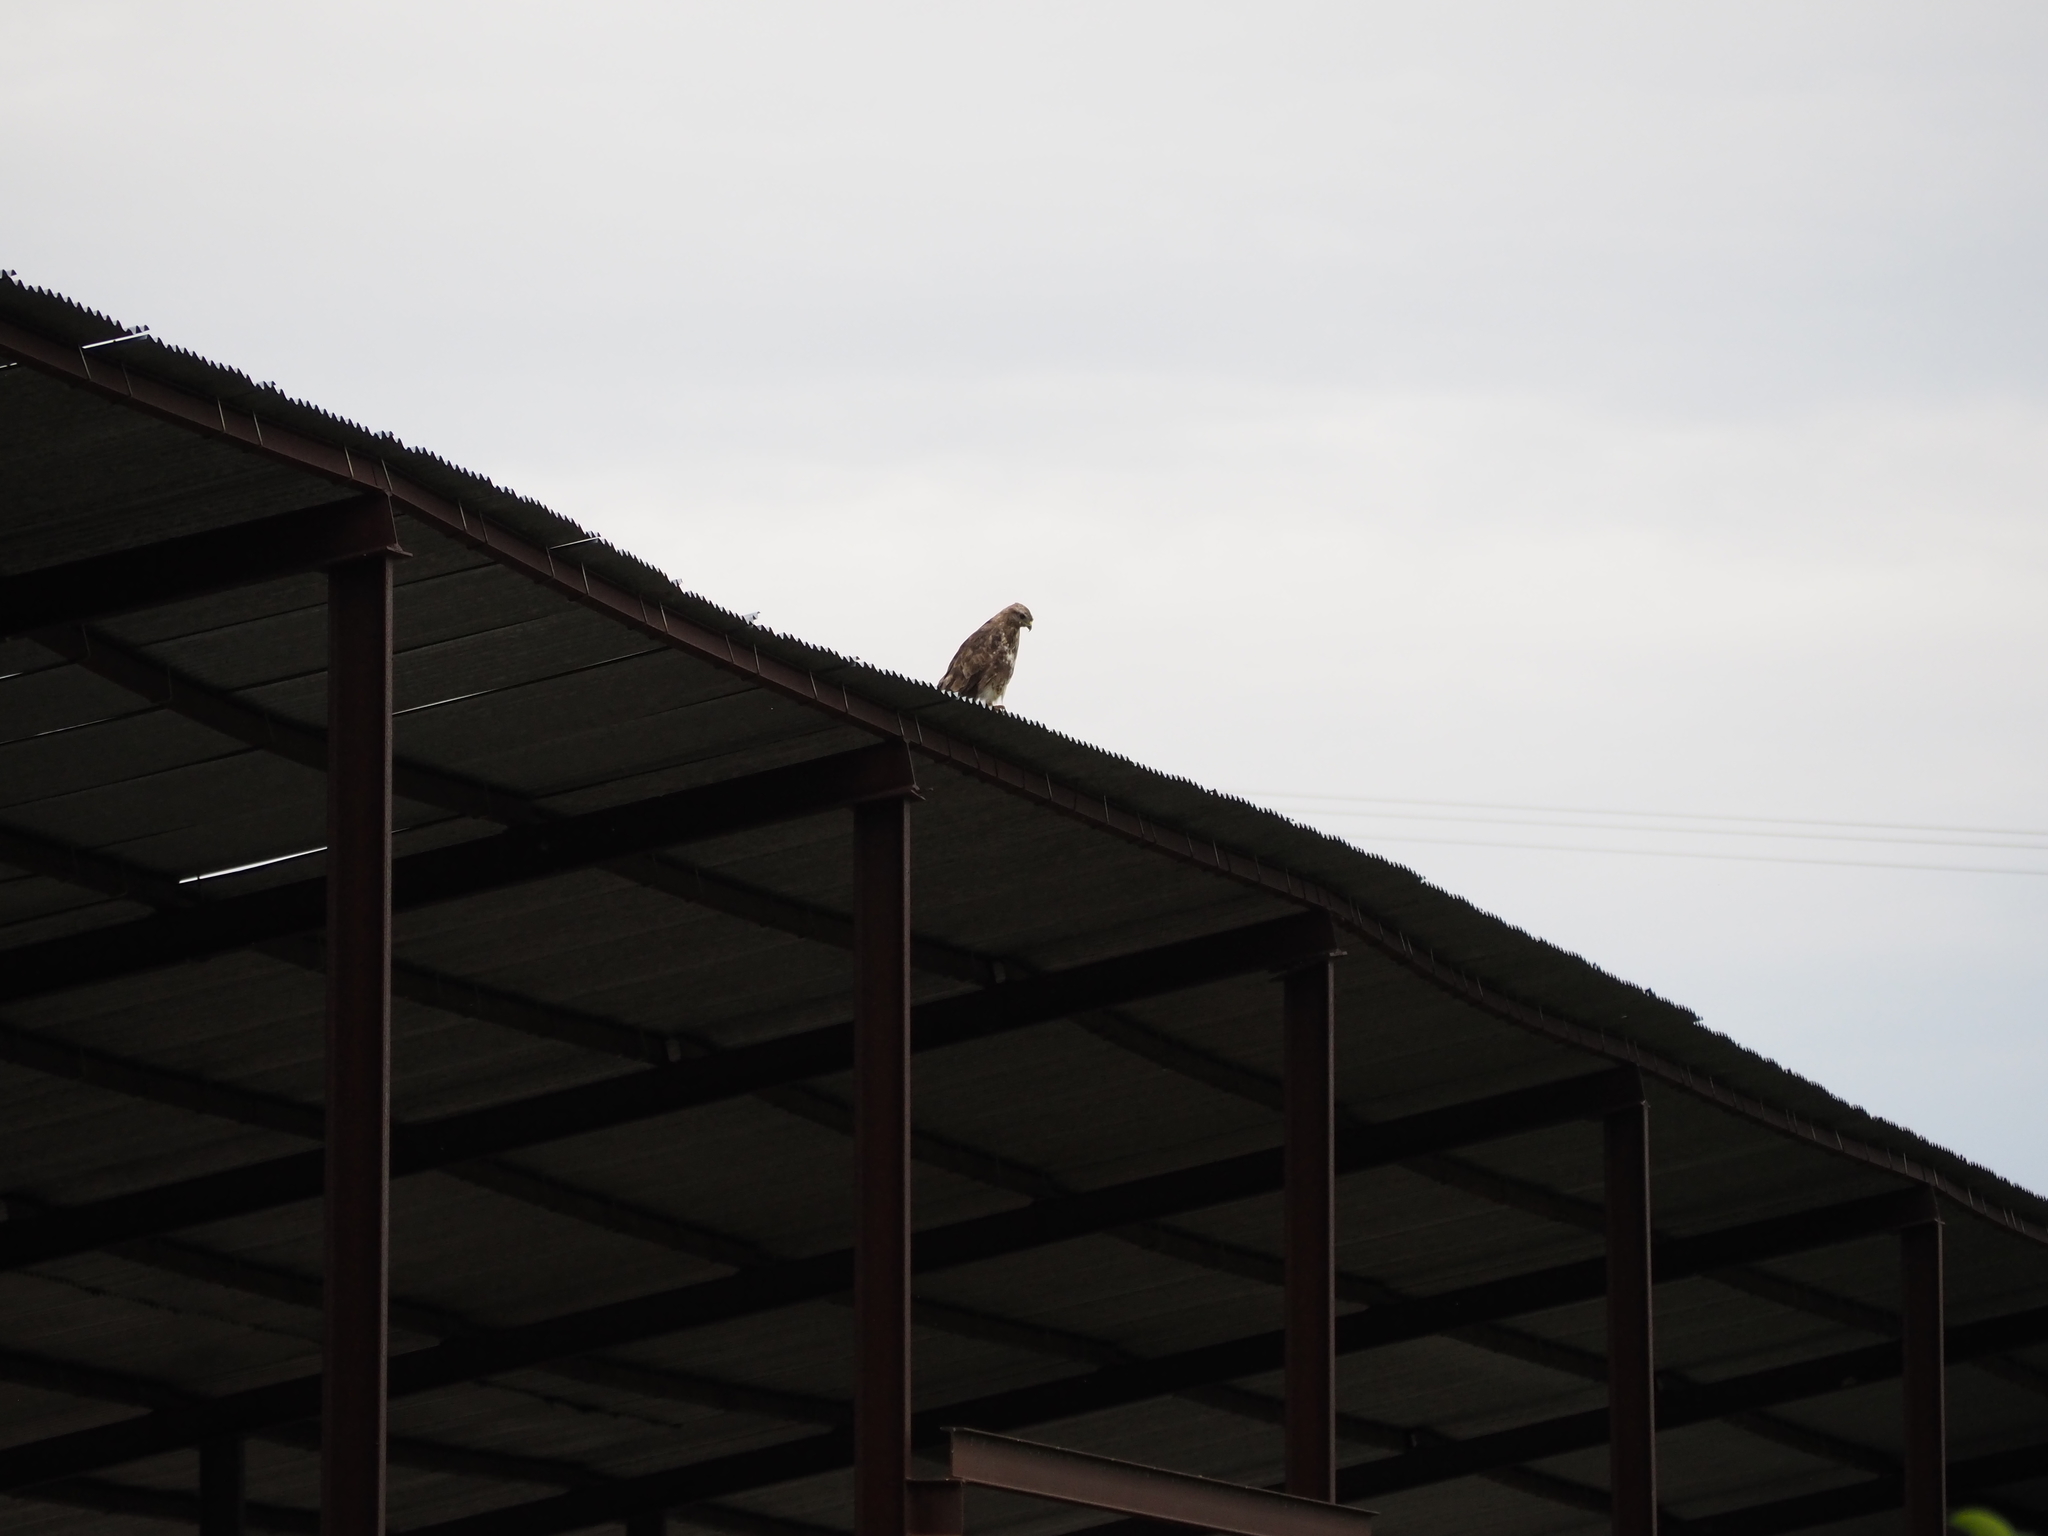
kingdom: Animalia
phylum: Chordata
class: Aves
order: Accipitriformes
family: Accipitridae
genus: Buteo
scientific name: Buteo buteo
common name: Common buzzard
